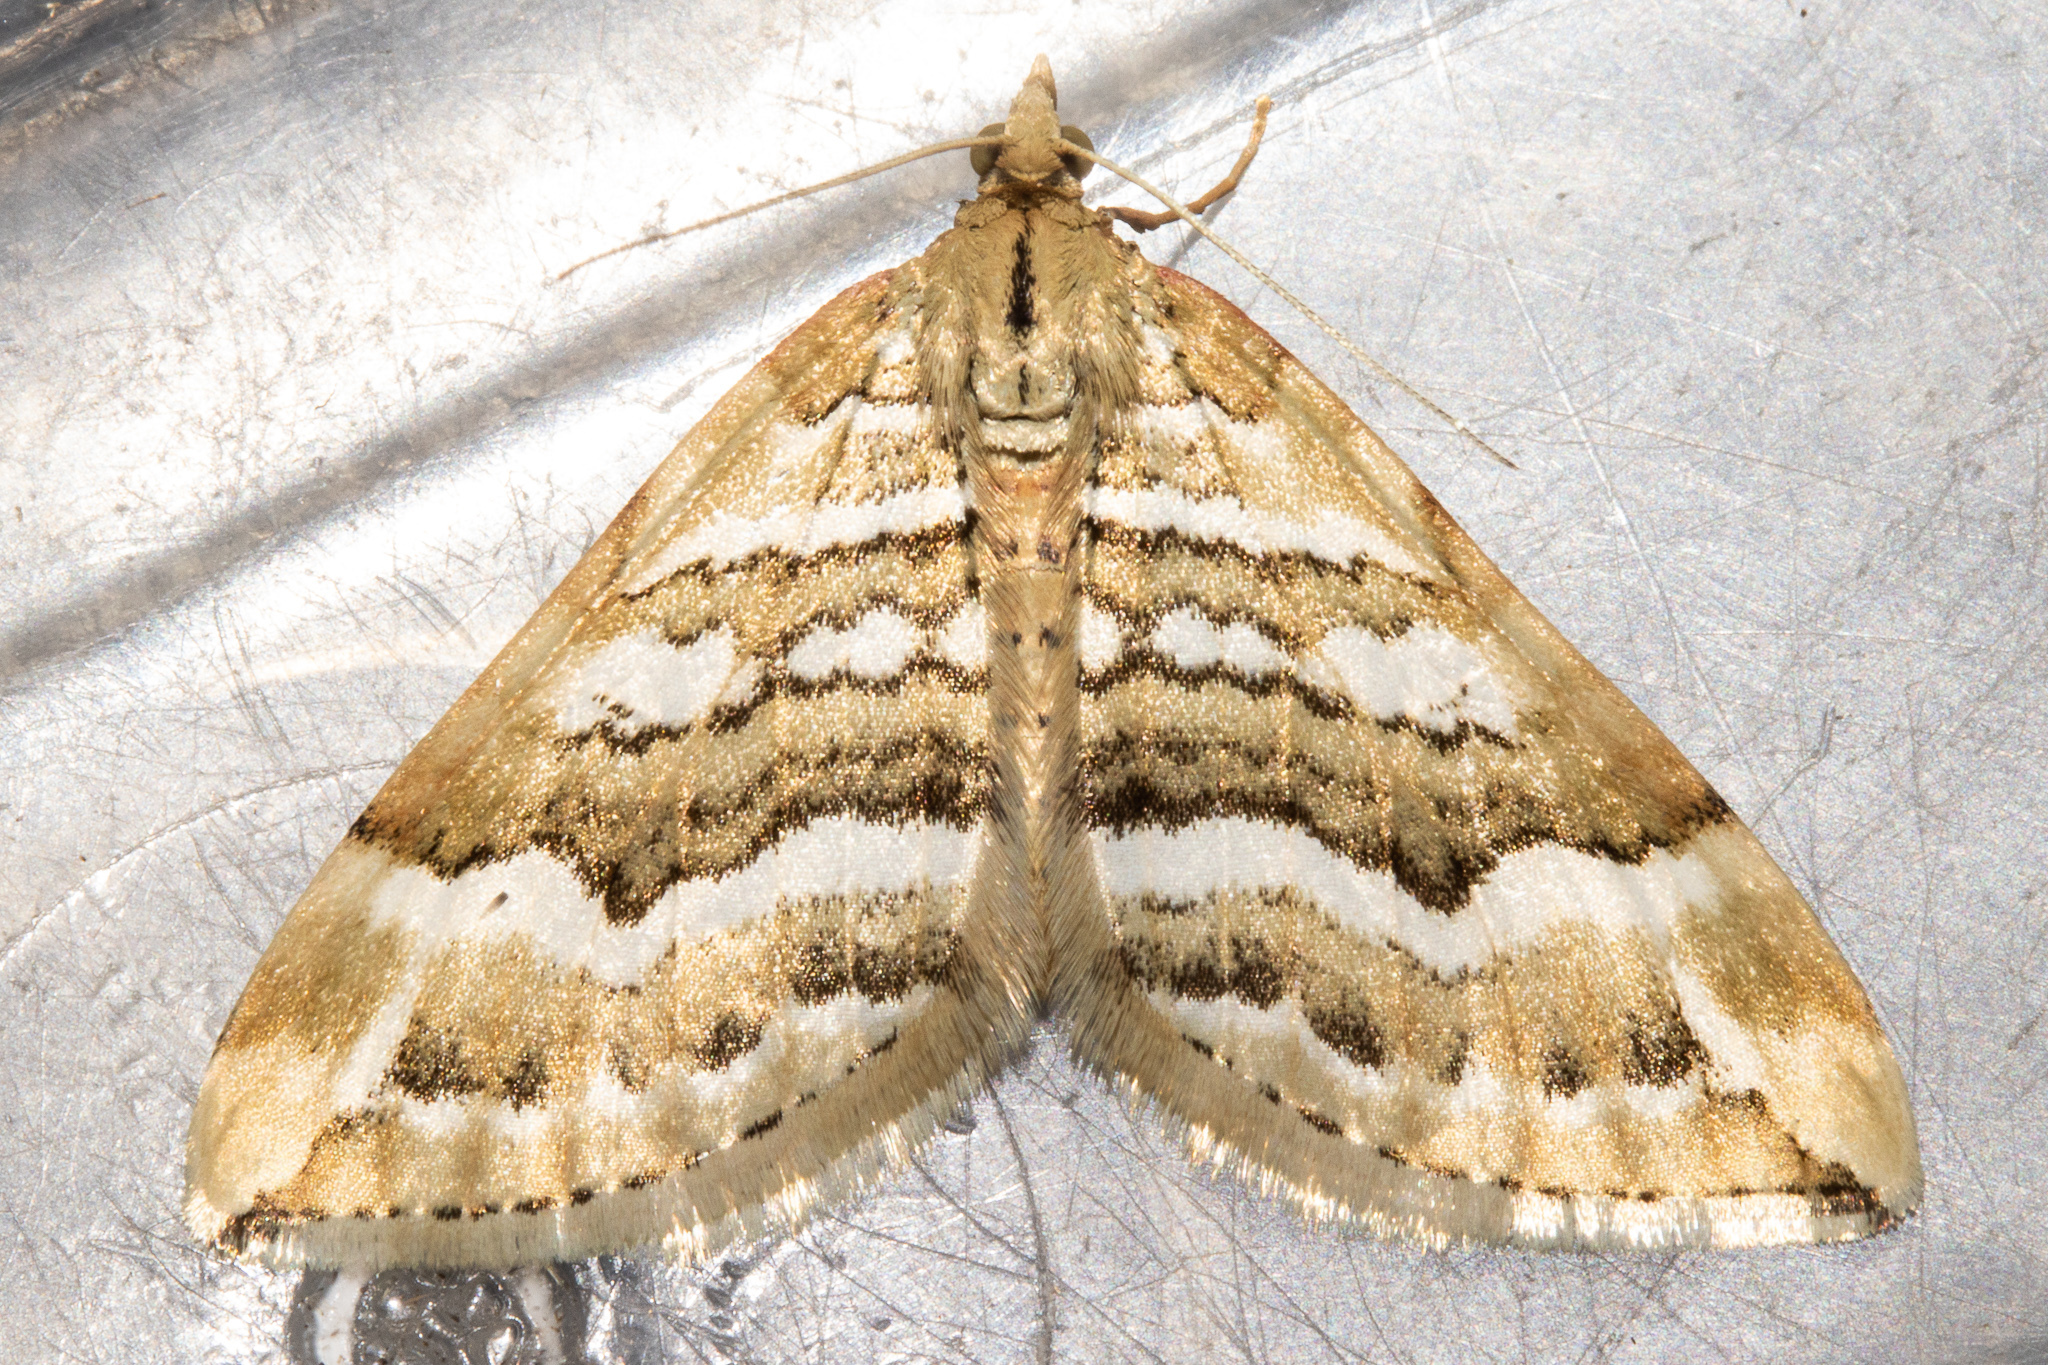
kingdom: Animalia
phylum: Arthropoda
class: Insecta
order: Lepidoptera
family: Geometridae
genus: Asaphodes
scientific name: Asaphodes cataphracta
